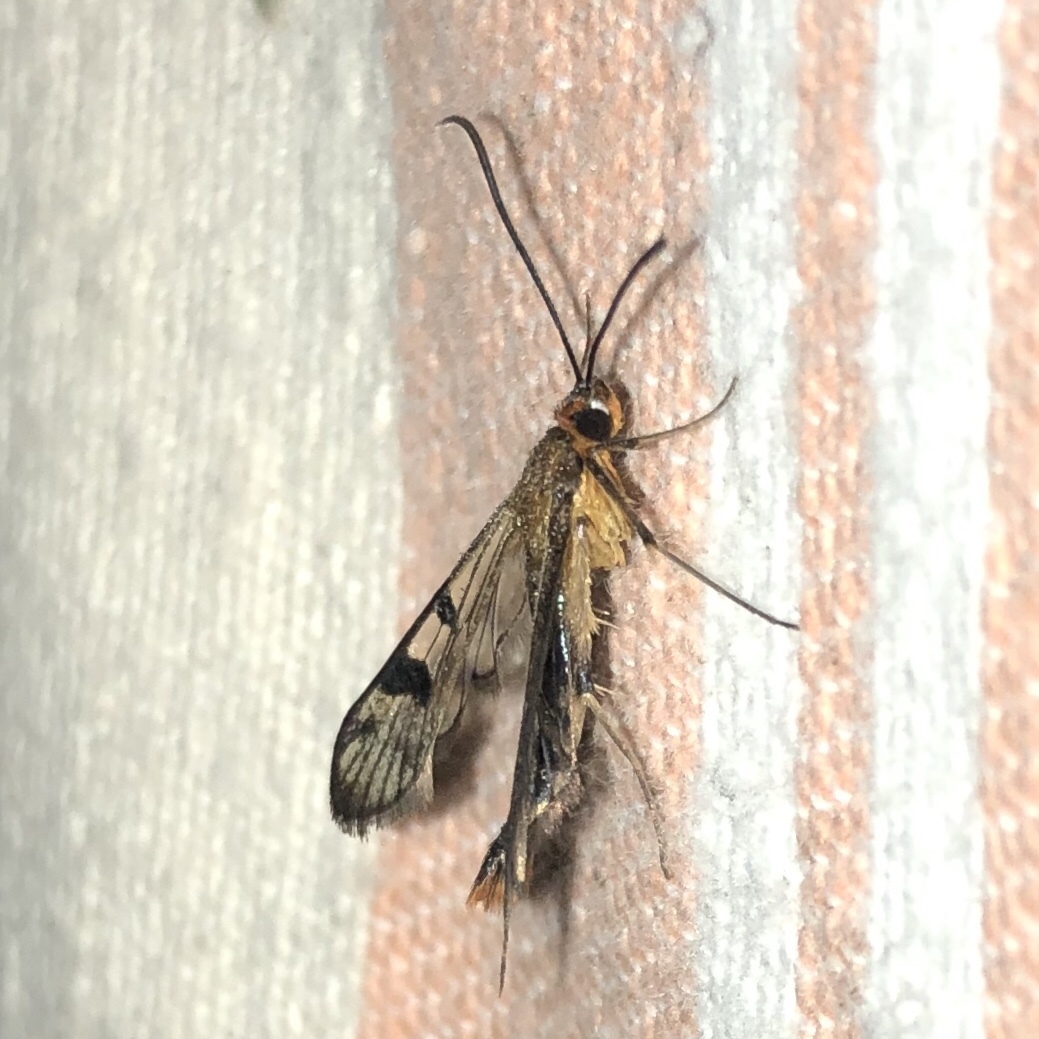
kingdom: Animalia
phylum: Arthropoda
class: Insecta
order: Lepidoptera
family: Sesiidae
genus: Synanthedon
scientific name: Synanthedon acerni
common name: Maple callus borer moth
